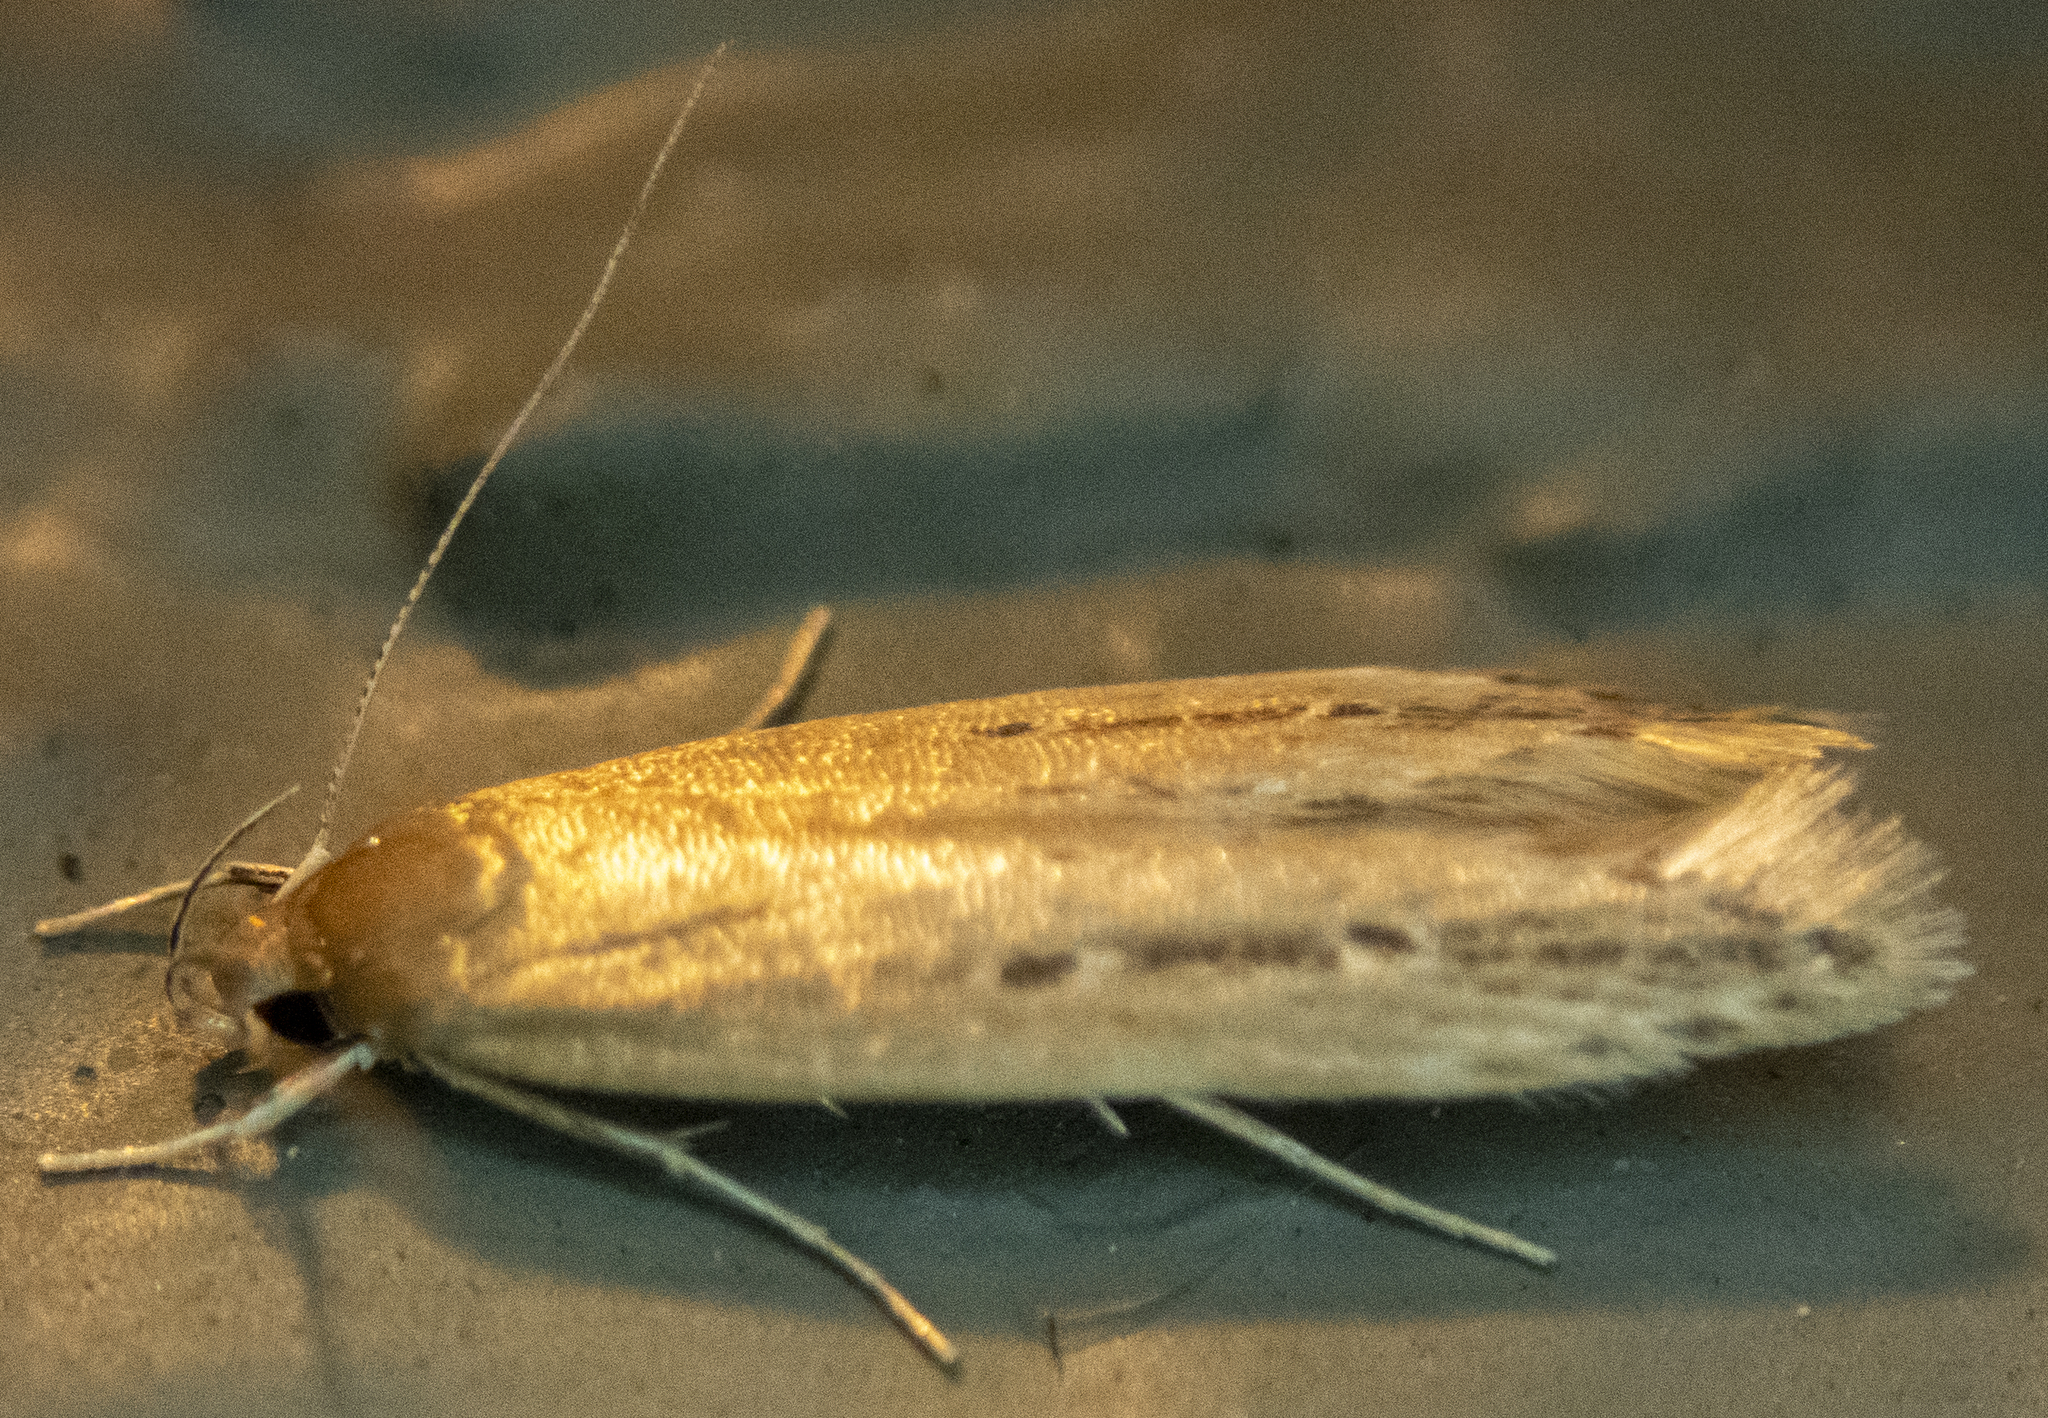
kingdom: Animalia
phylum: Arthropoda
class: Insecta
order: Lepidoptera
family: Cosmopterigidae
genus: Limnaecia
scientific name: Limnaecia phragmitella
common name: Bulrush cosmet
